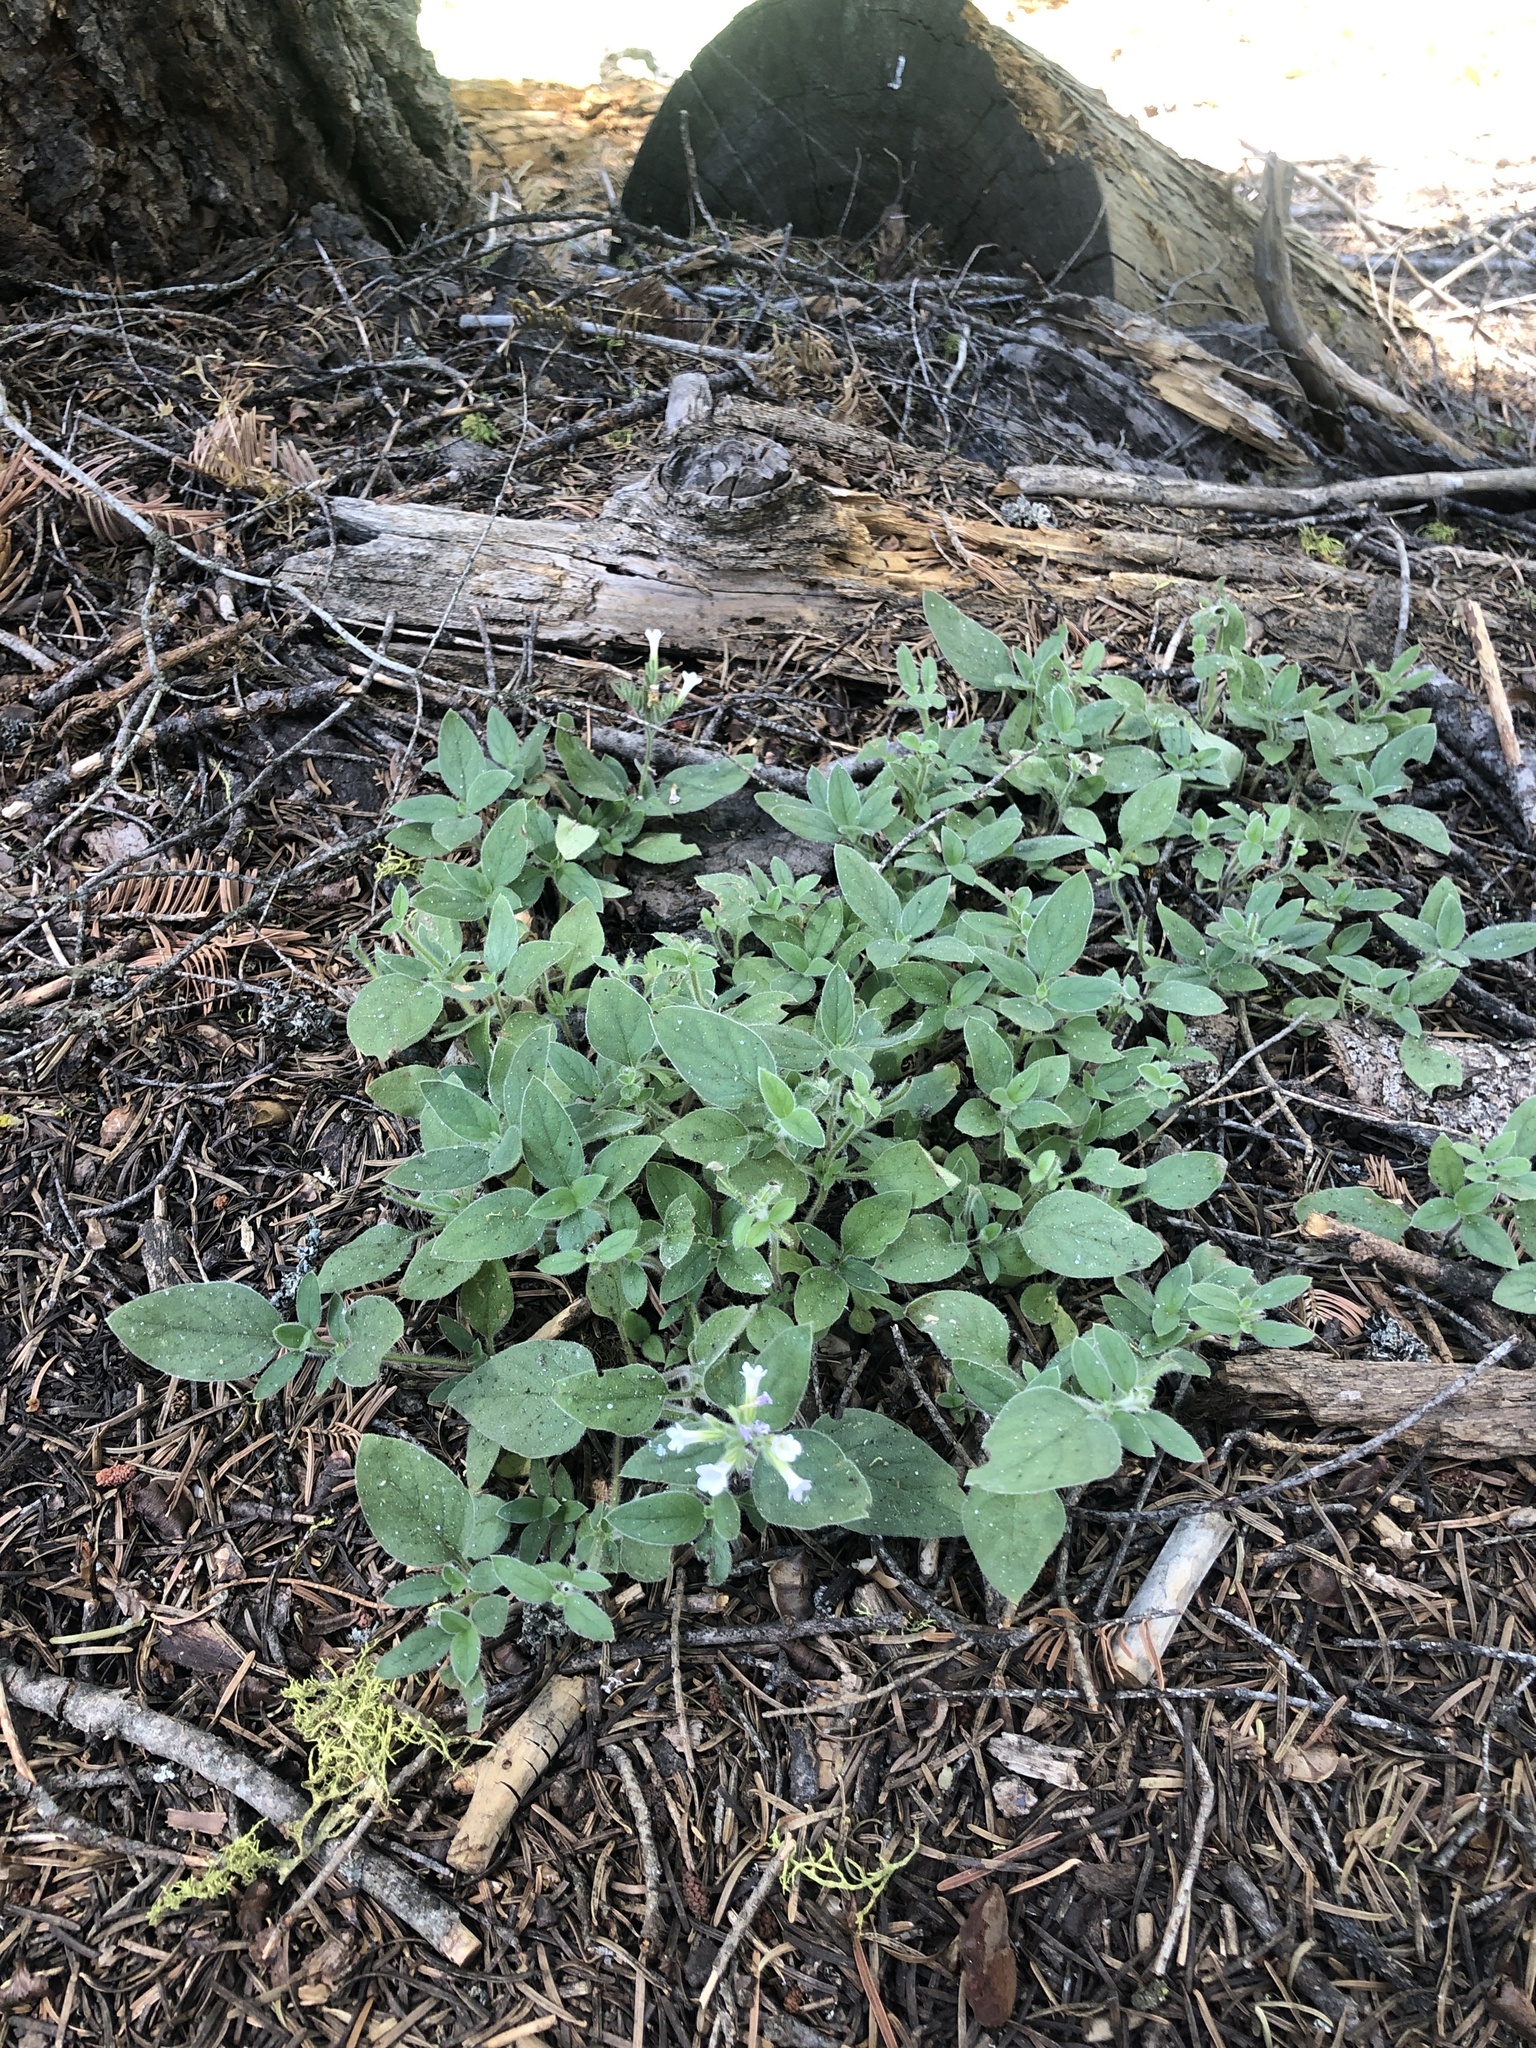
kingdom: Plantae
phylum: Tracheophyta
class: Magnoliopsida
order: Boraginales
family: Hydrophyllaceae
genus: Draperia
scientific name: Draperia systyla
